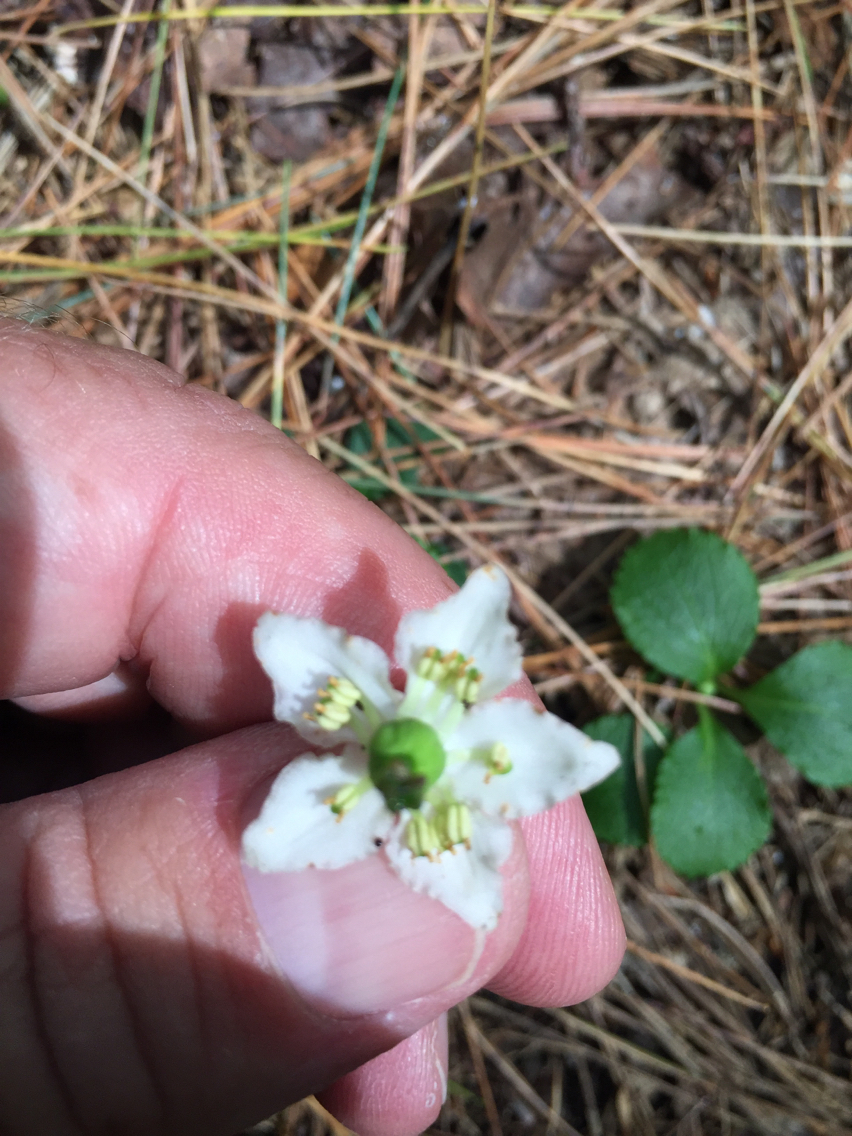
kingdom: Plantae
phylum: Tracheophyta
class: Magnoliopsida
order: Ericales
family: Ericaceae
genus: Moneses
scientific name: Moneses uniflora
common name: One-flowered wintergreen
